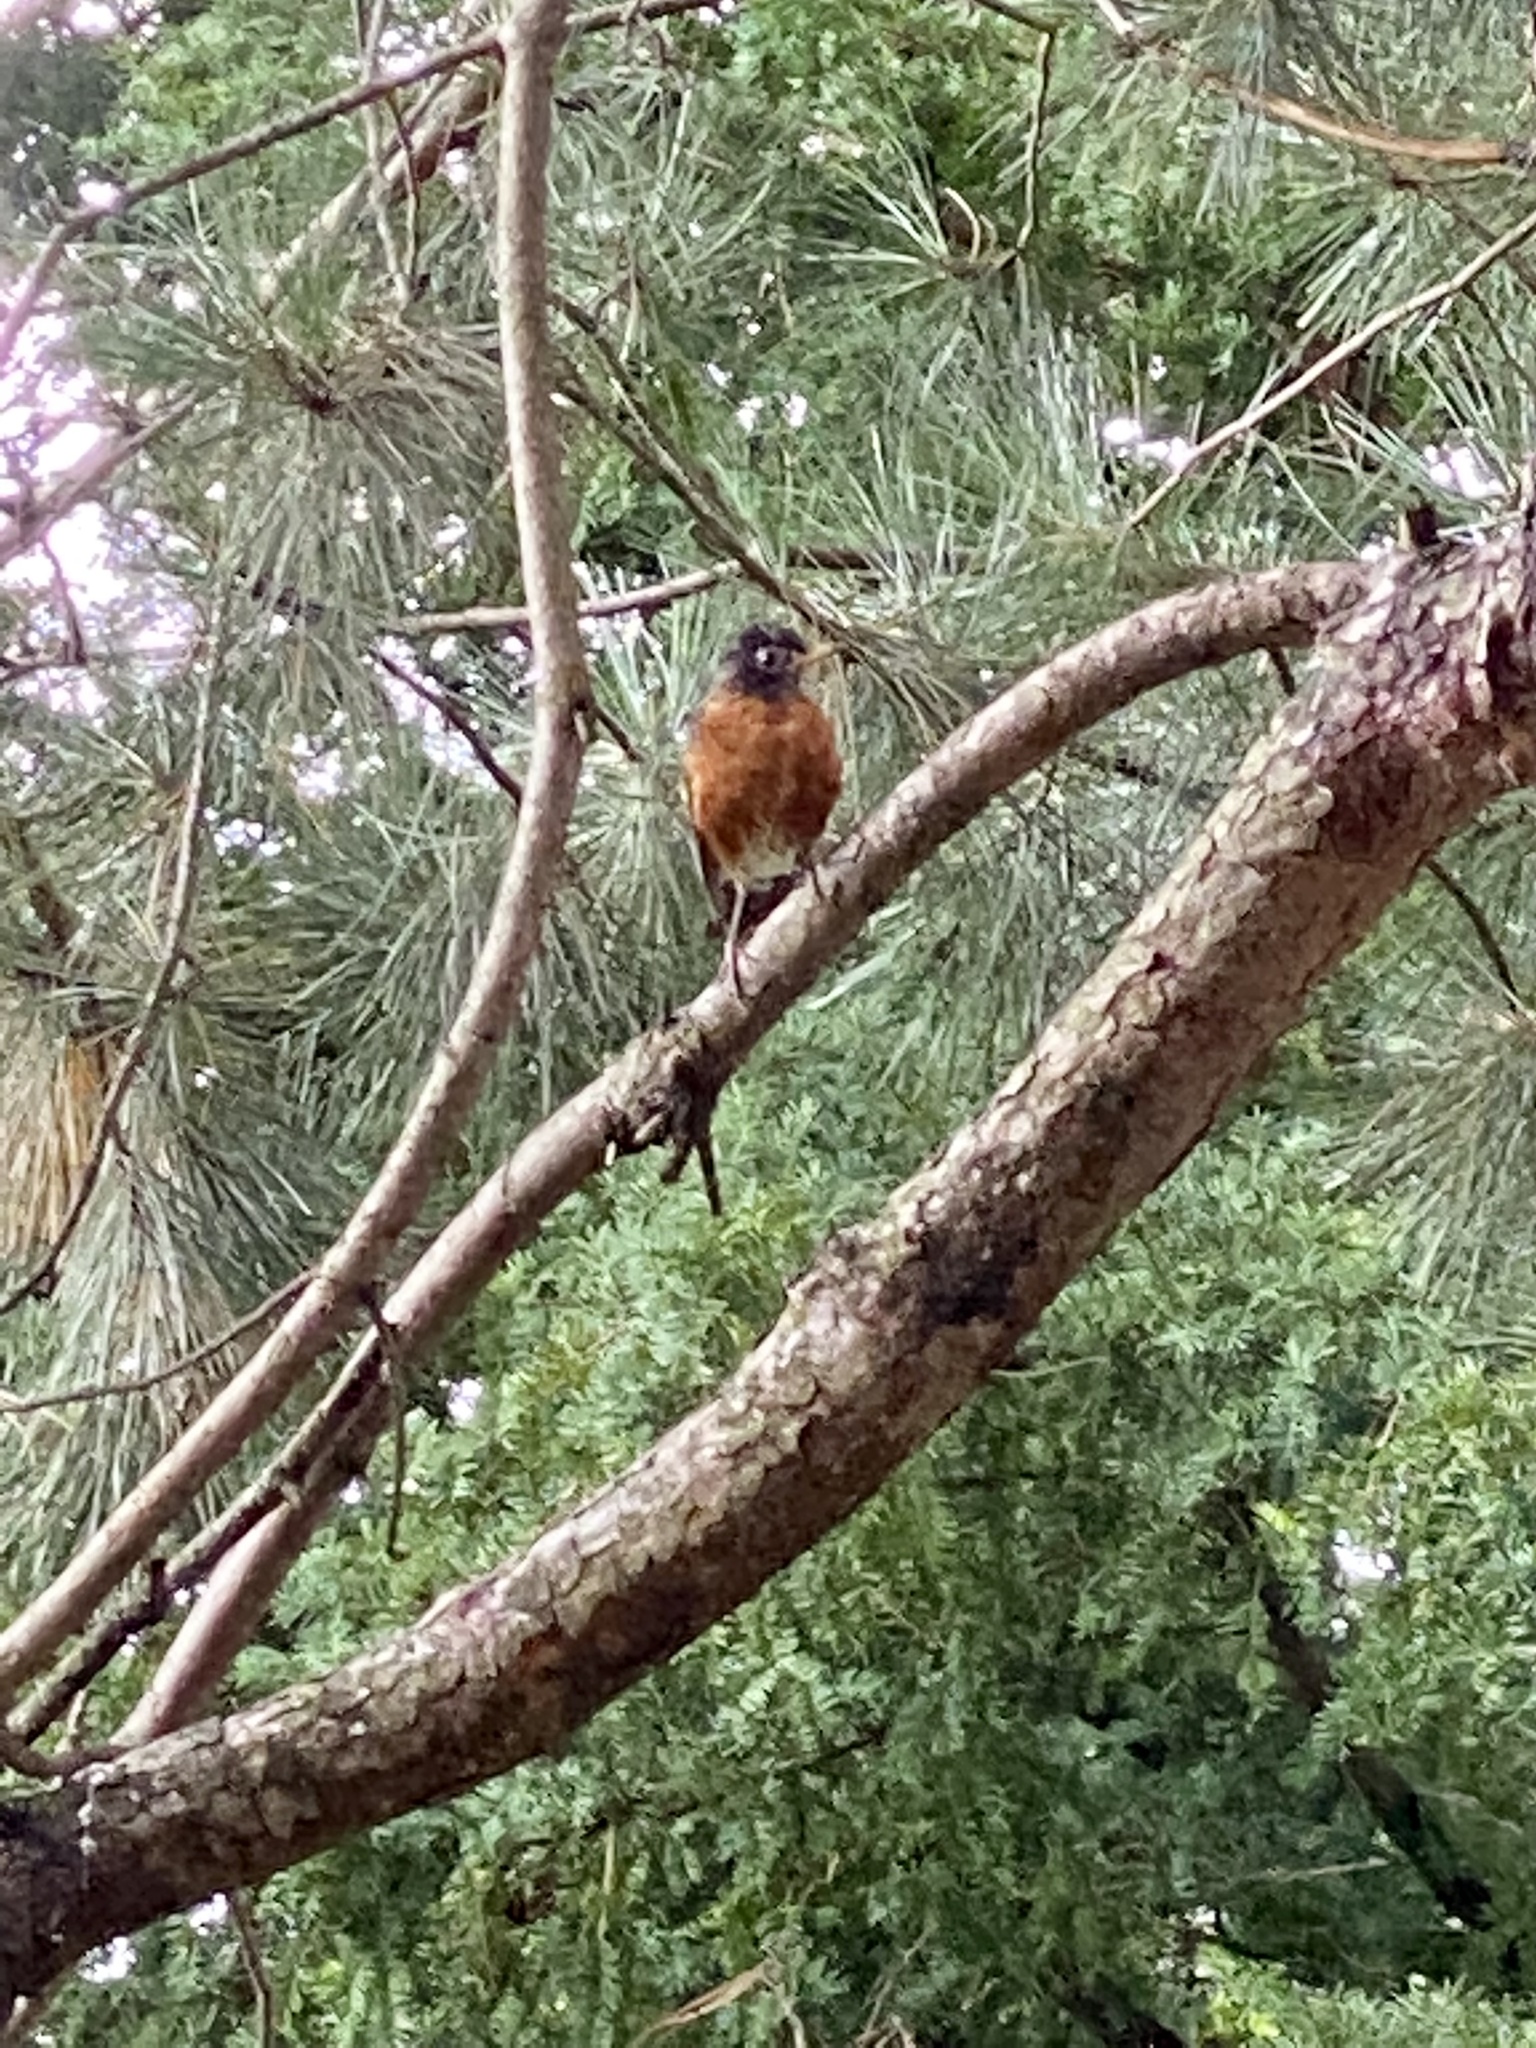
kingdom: Animalia
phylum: Chordata
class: Aves
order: Passeriformes
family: Turdidae
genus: Turdus
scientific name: Turdus migratorius
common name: American robin
